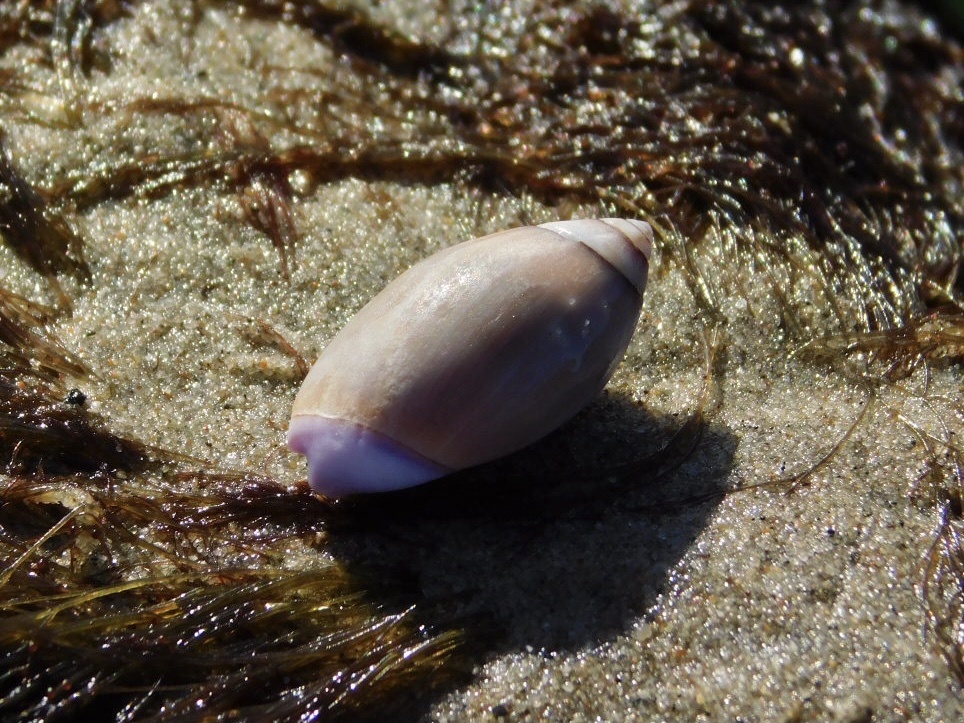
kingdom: Animalia
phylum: Mollusca
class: Gastropoda
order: Neogastropoda
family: Olividae
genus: Callianax
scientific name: Callianax biplicata
